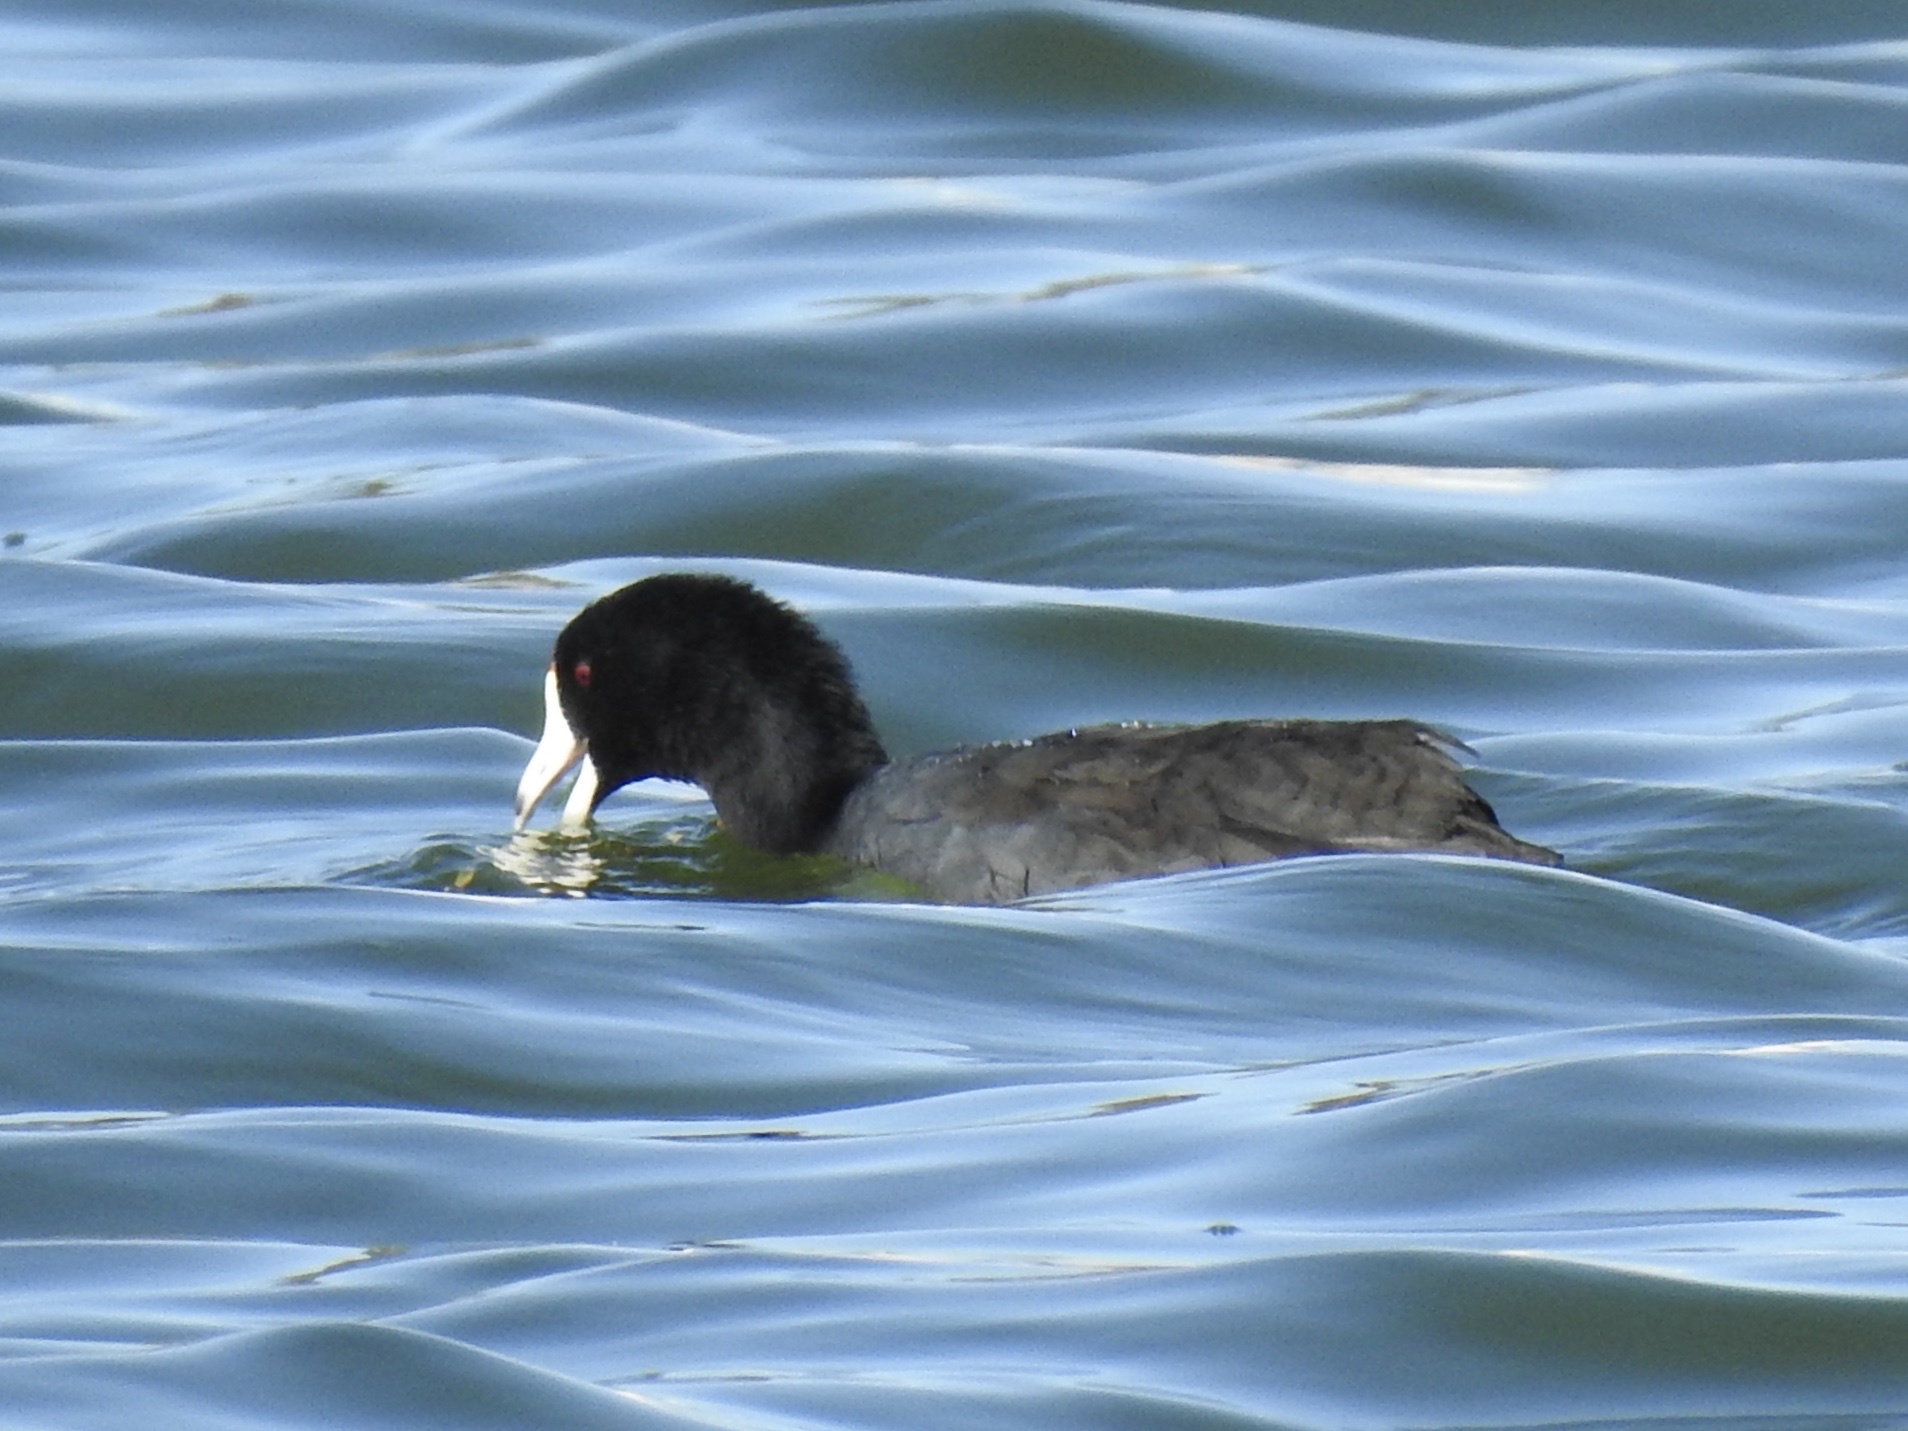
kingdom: Animalia
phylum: Chordata
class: Aves
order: Gruiformes
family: Rallidae
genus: Fulica
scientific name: Fulica americana
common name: American coot
